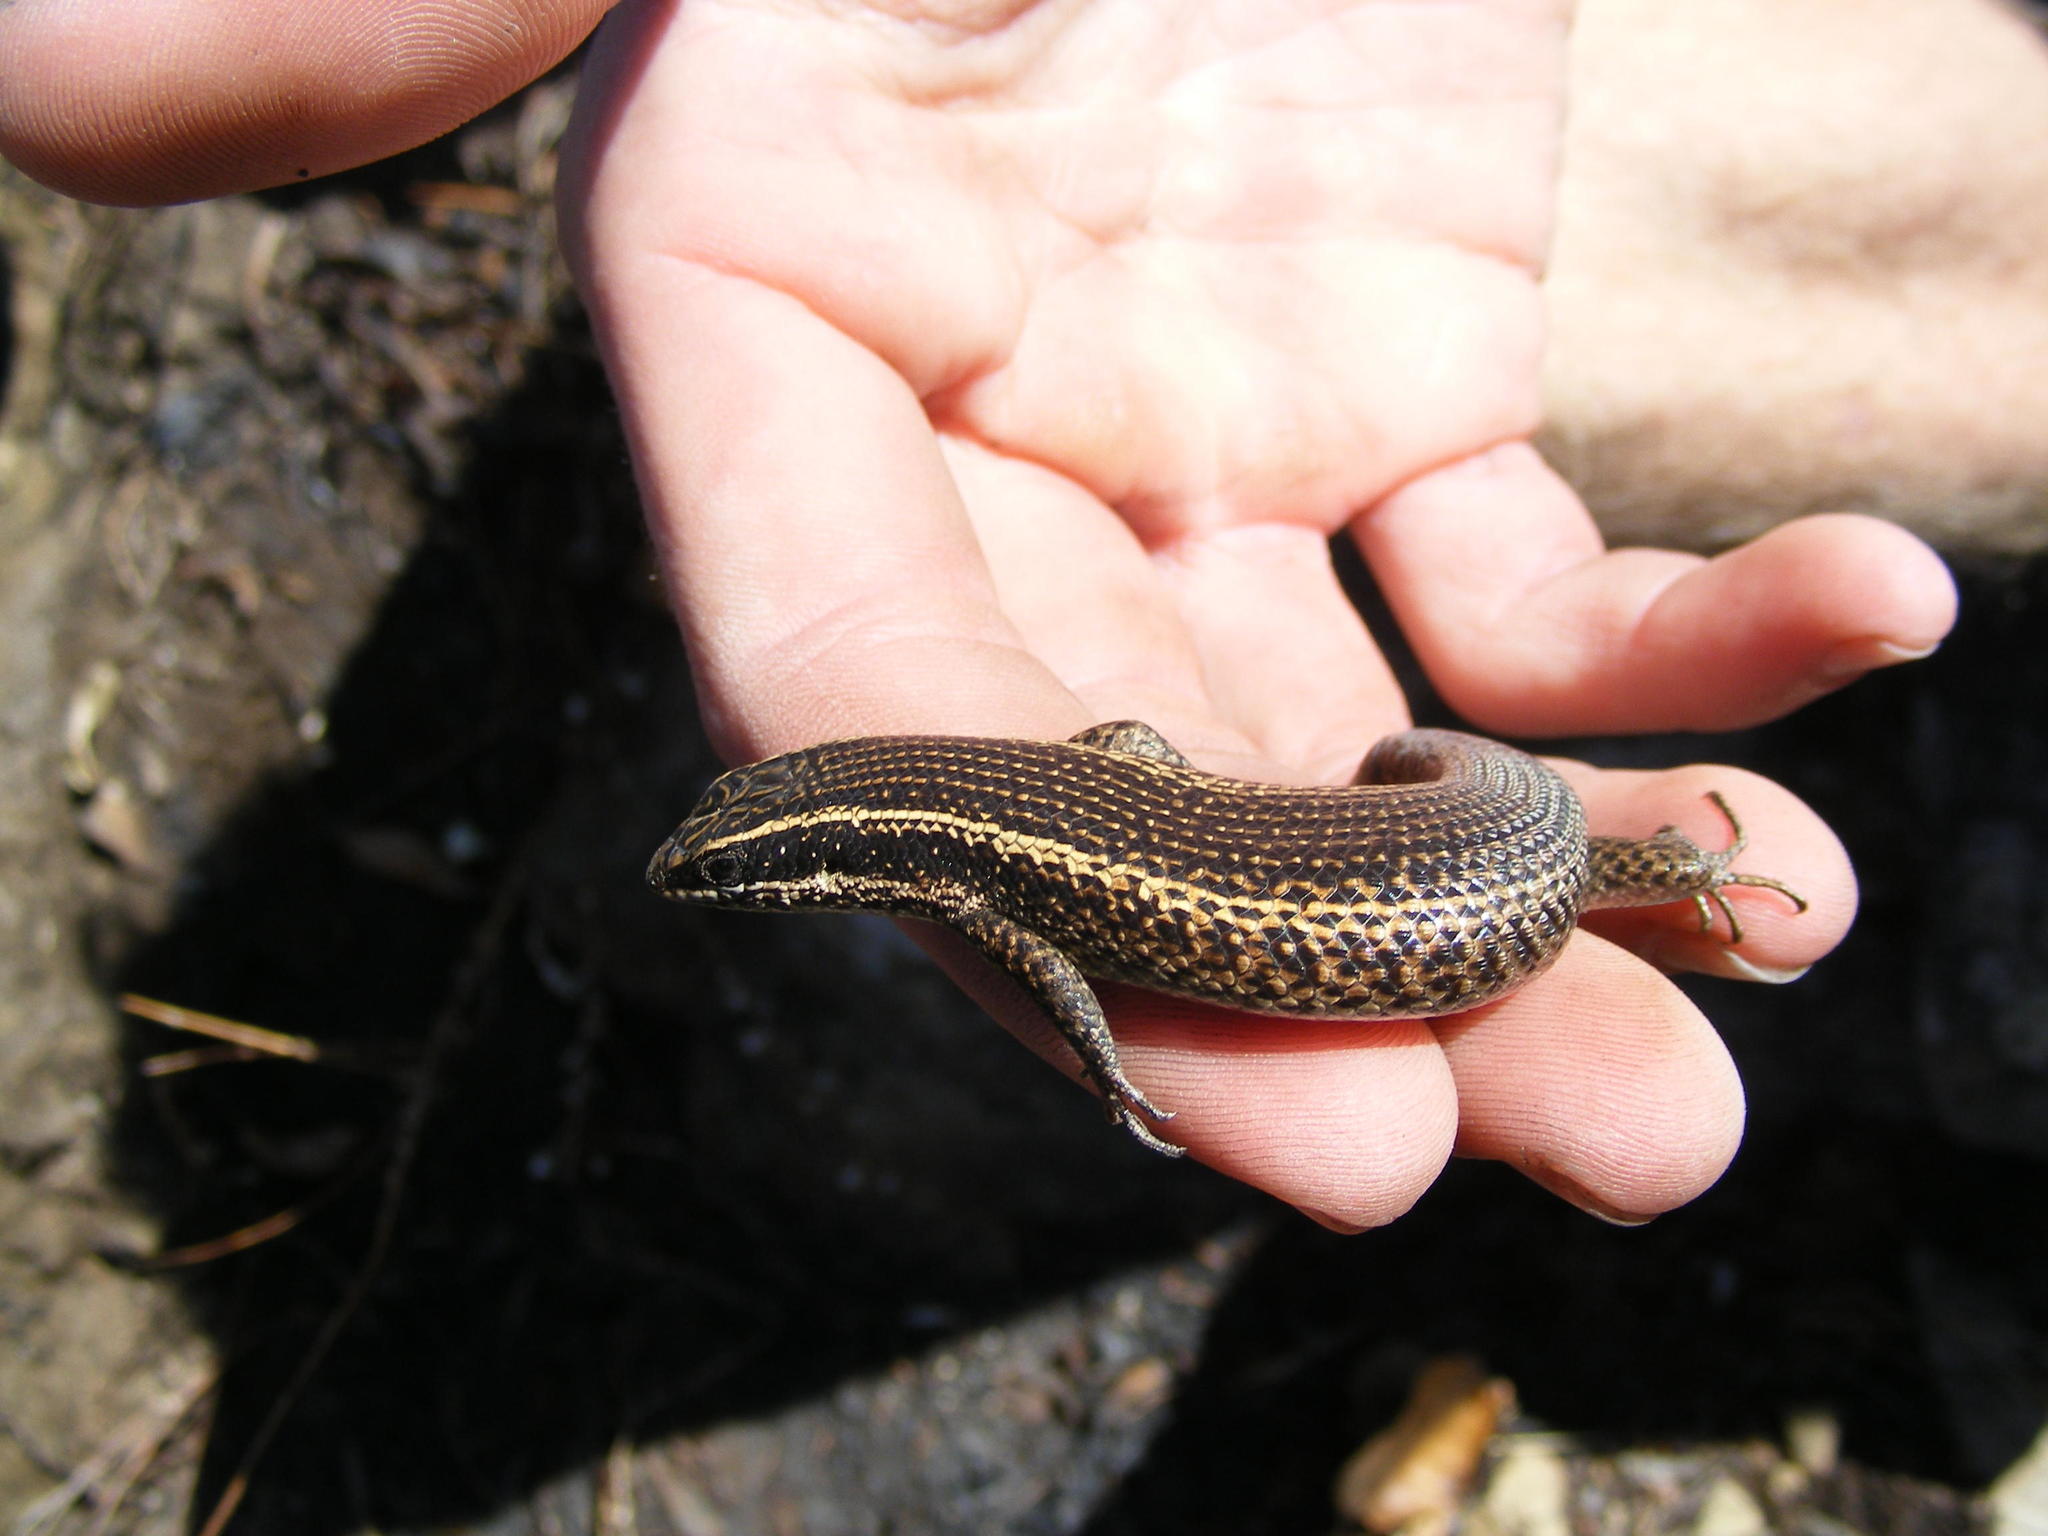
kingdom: Animalia
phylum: Chordata
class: Squamata
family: Scincidae
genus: Trachylepis
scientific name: Trachylepis punctatissima
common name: Montane speckled skink
